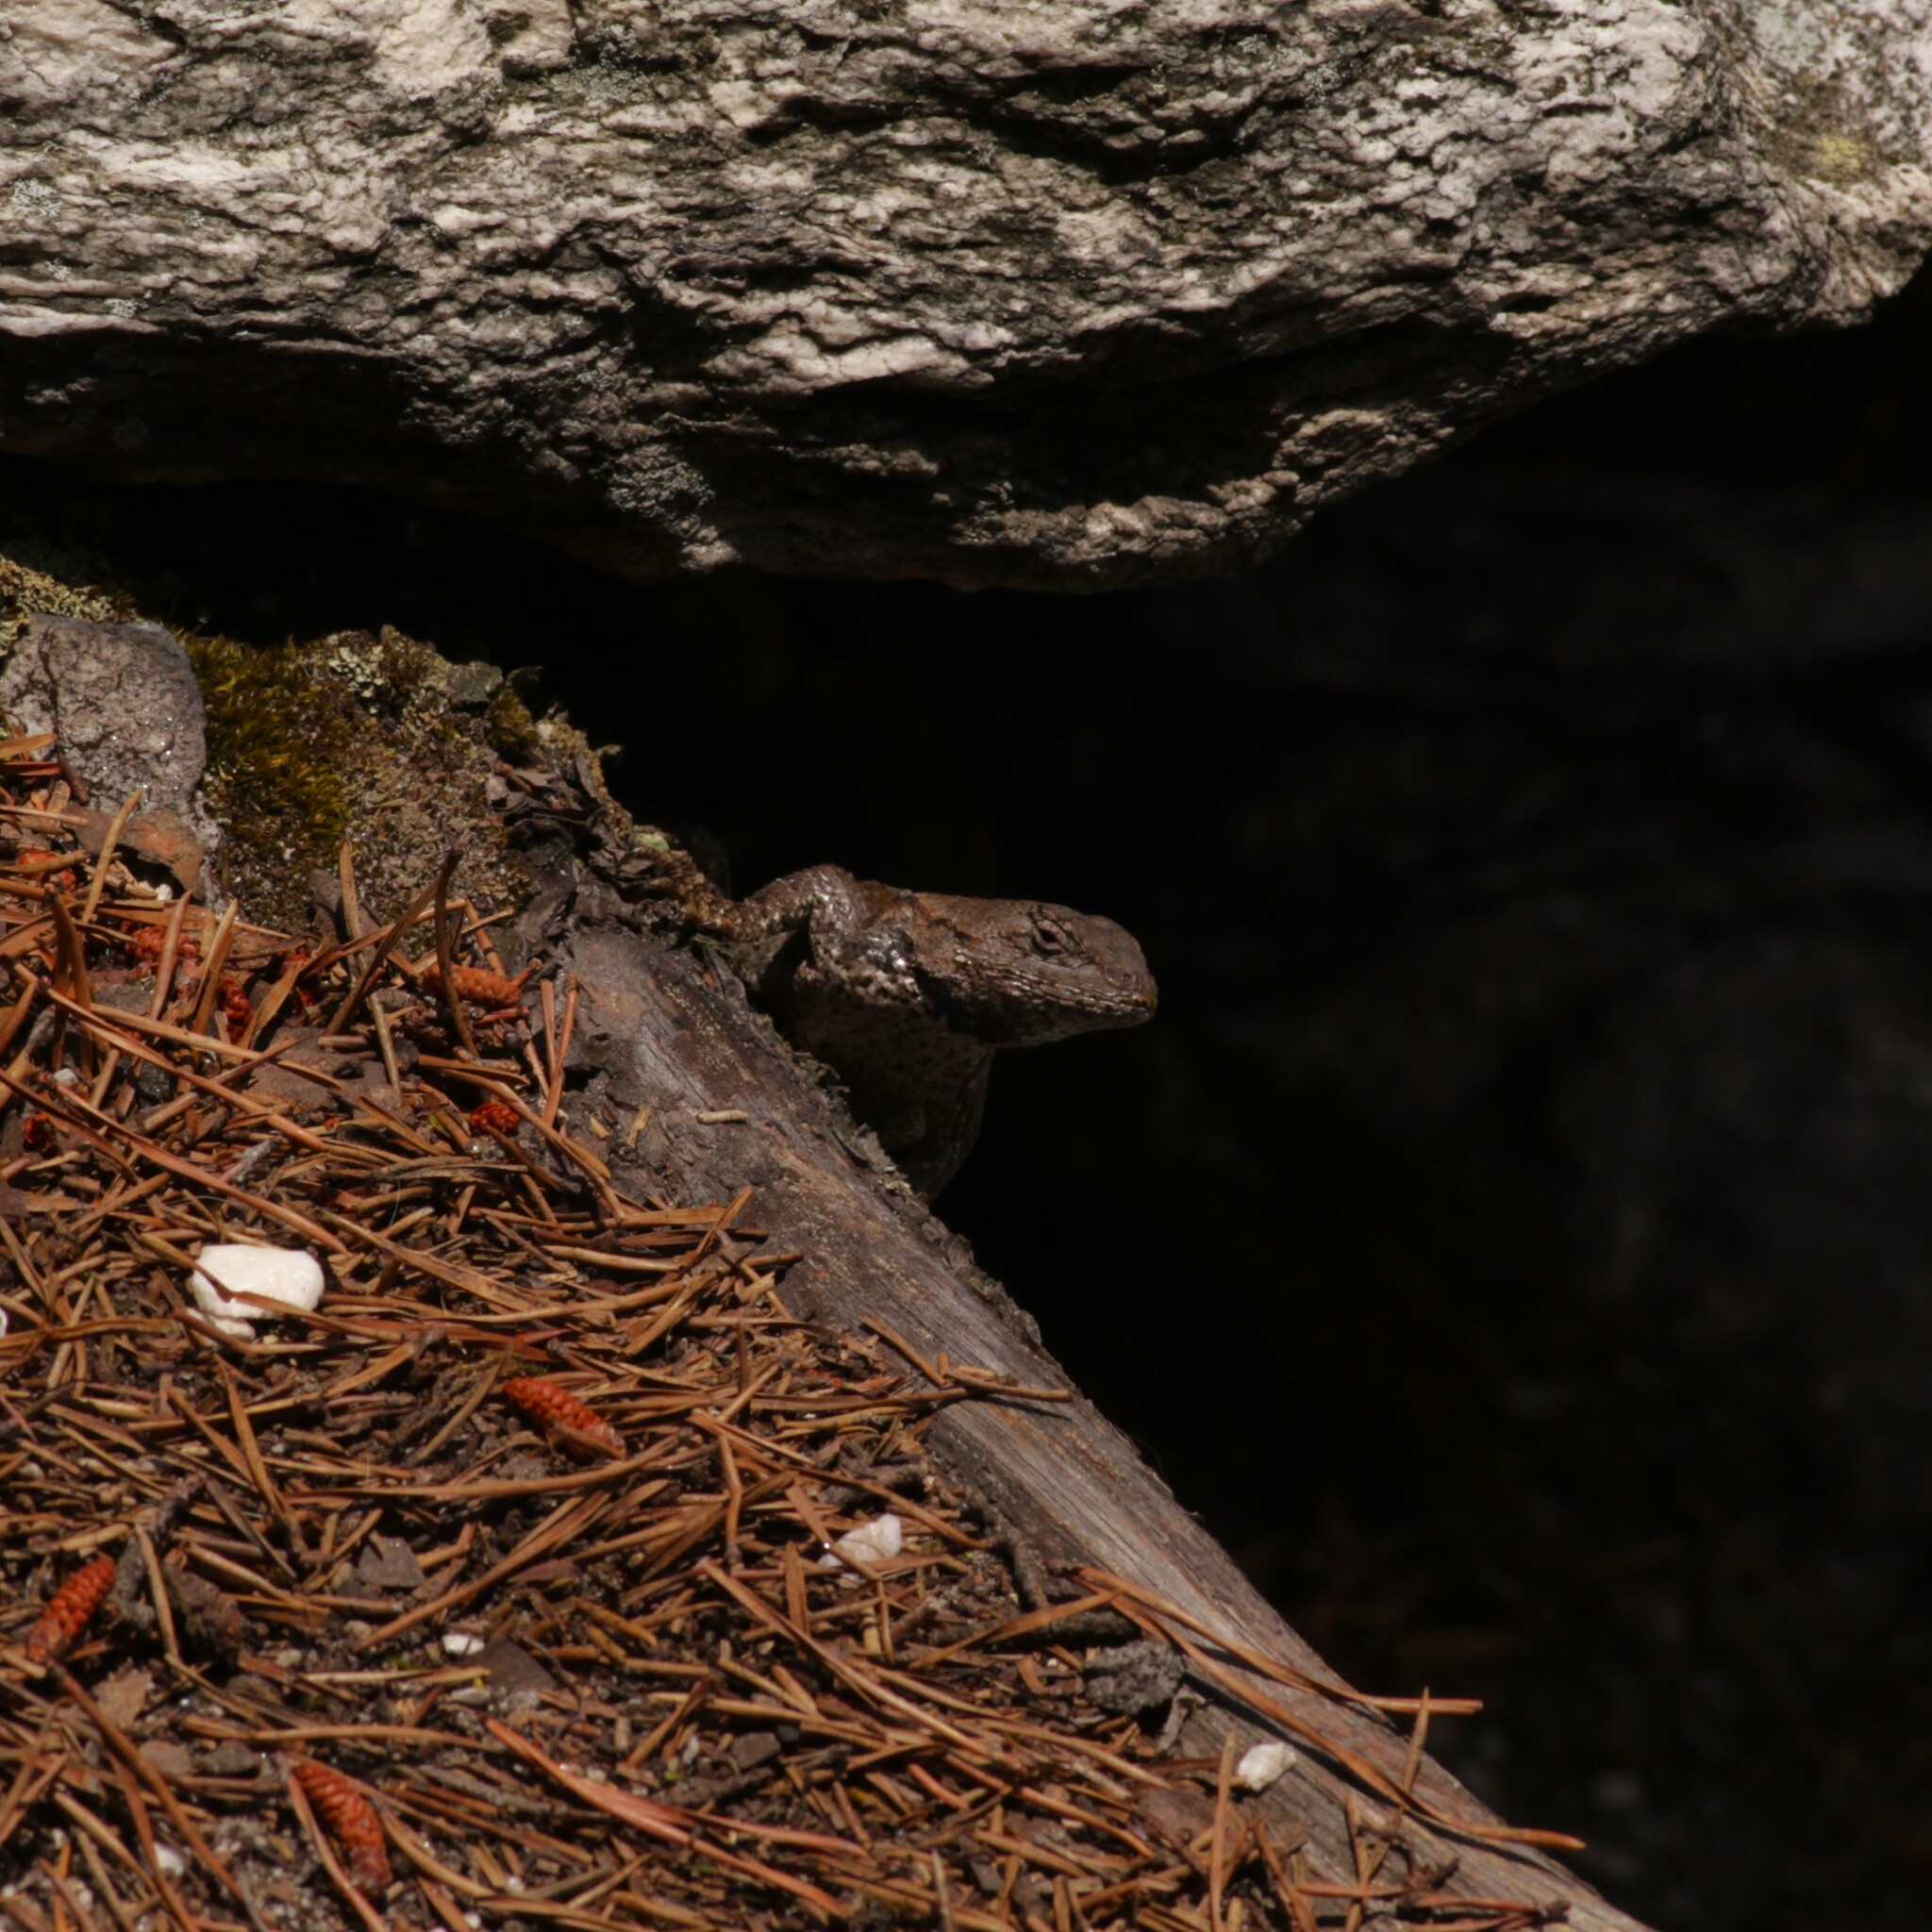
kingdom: Animalia
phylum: Chordata
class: Squamata
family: Phrynosomatidae
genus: Sceloporus
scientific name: Sceloporus undulatus
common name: Eastern fence lizard
